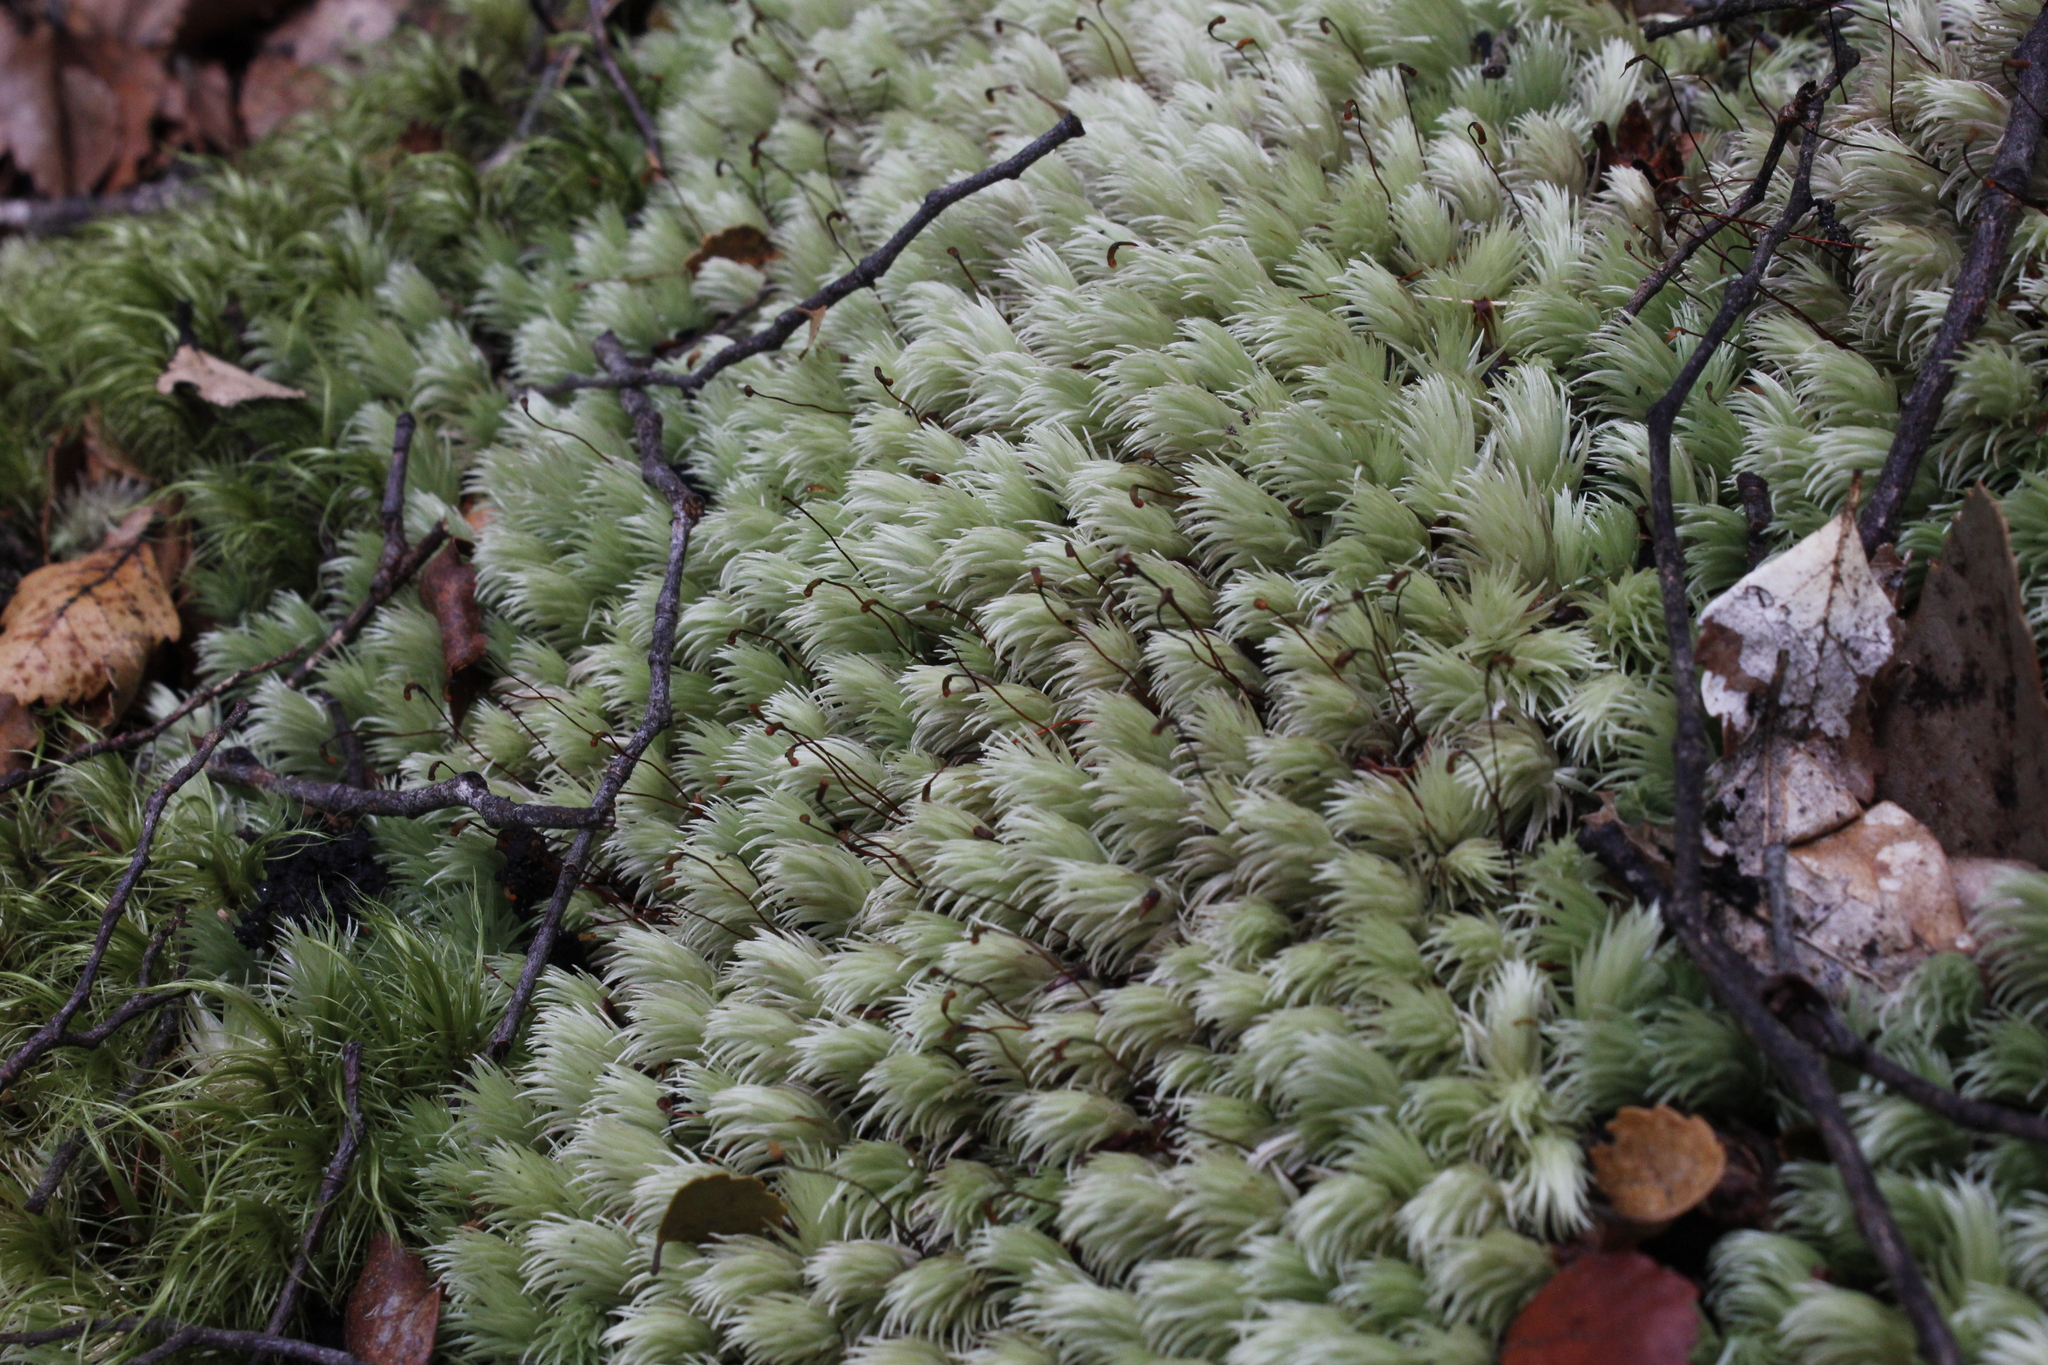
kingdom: Plantae
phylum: Bryophyta
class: Bryopsida
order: Dicranales
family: Leucobryaceae
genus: Leucobryum
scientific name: Leucobryum javense
